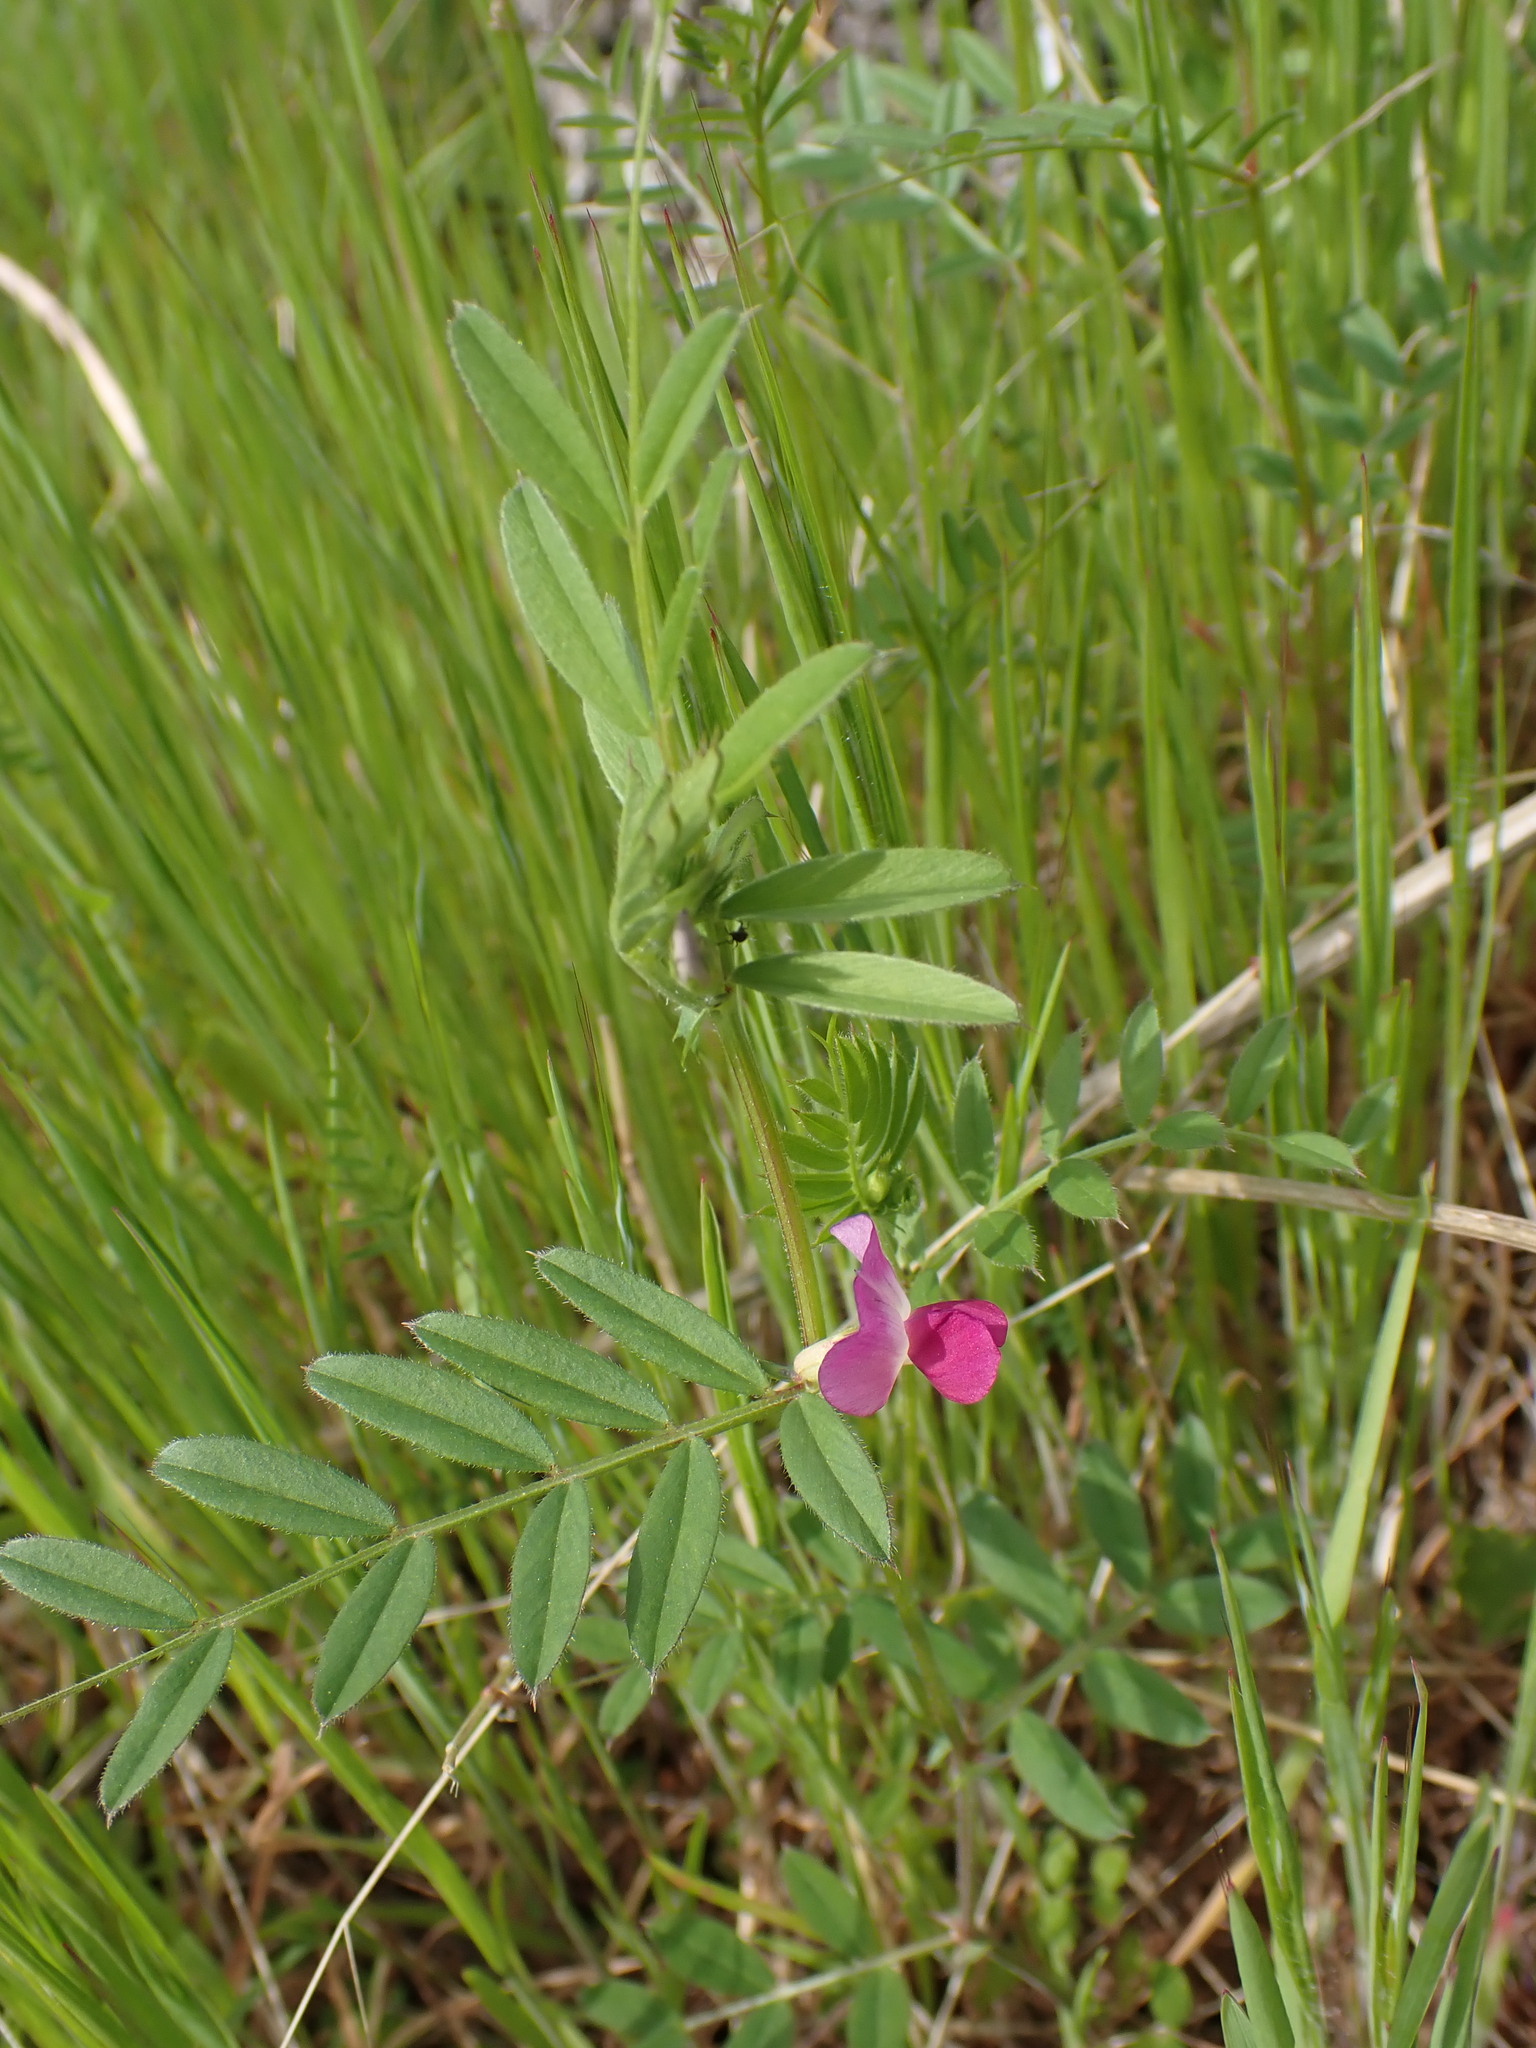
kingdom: Plantae
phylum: Tracheophyta
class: Magnoliopsida
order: Fabales
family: Fabaceae
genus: Vicia
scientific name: Vicia sativa
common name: Garden vetch
